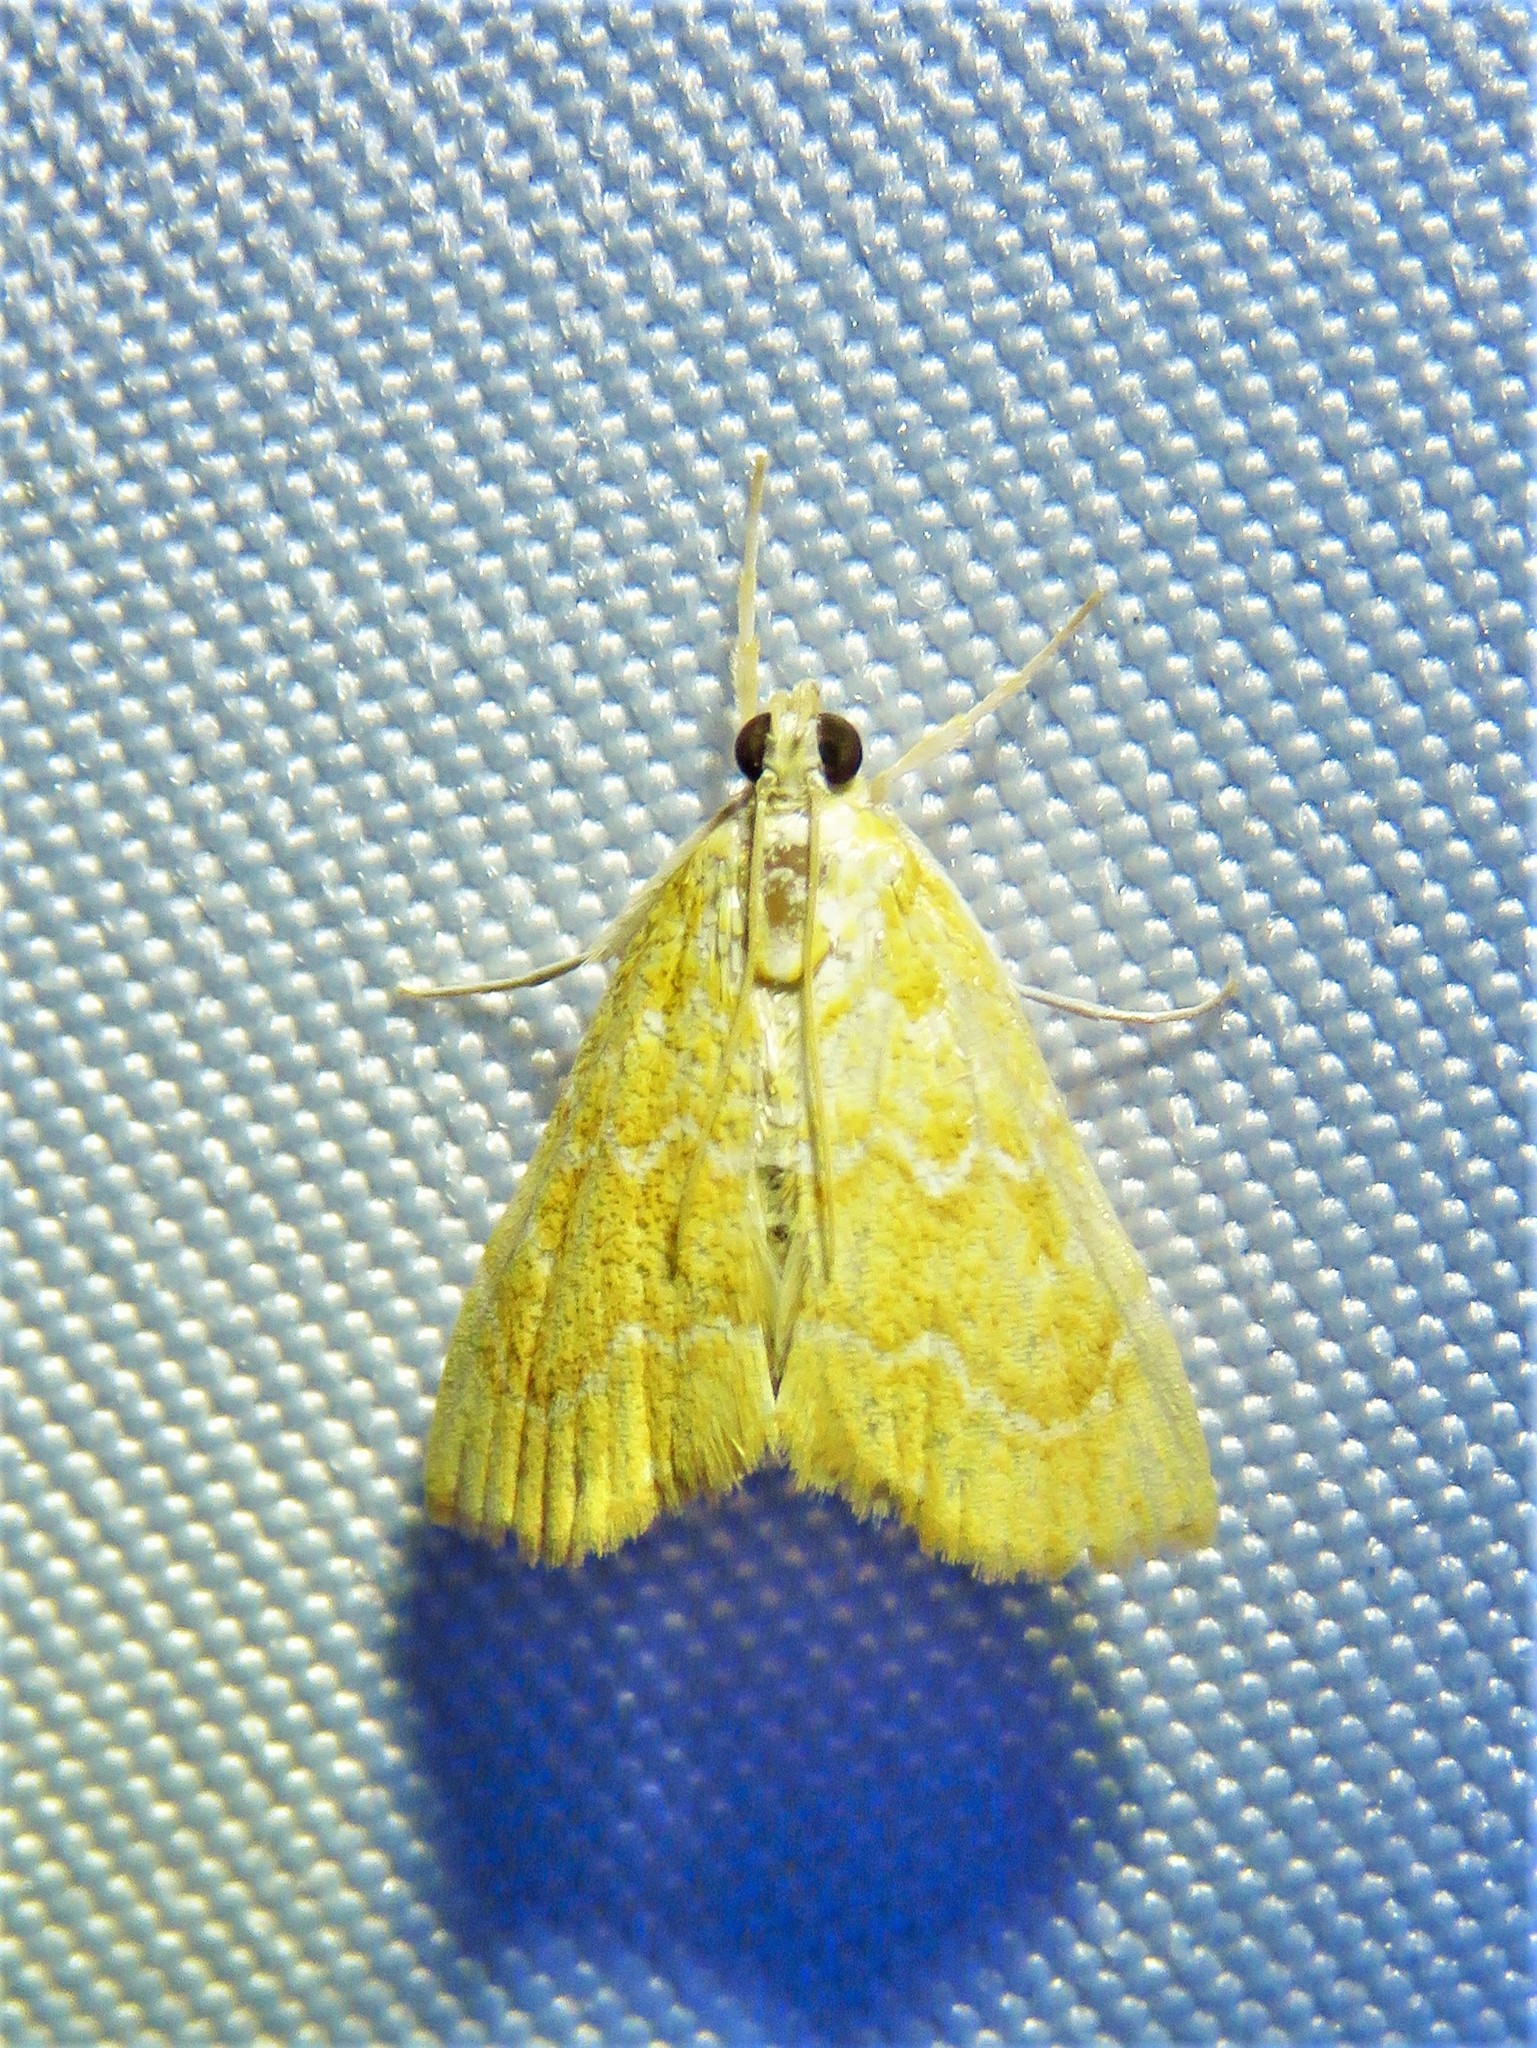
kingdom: Animalia
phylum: Arthropoda
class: Insecta
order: Lepidoptera
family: Crambidae
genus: Glaphyria
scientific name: Glaphyria sesquistrialis
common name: White-roped glaphyria
